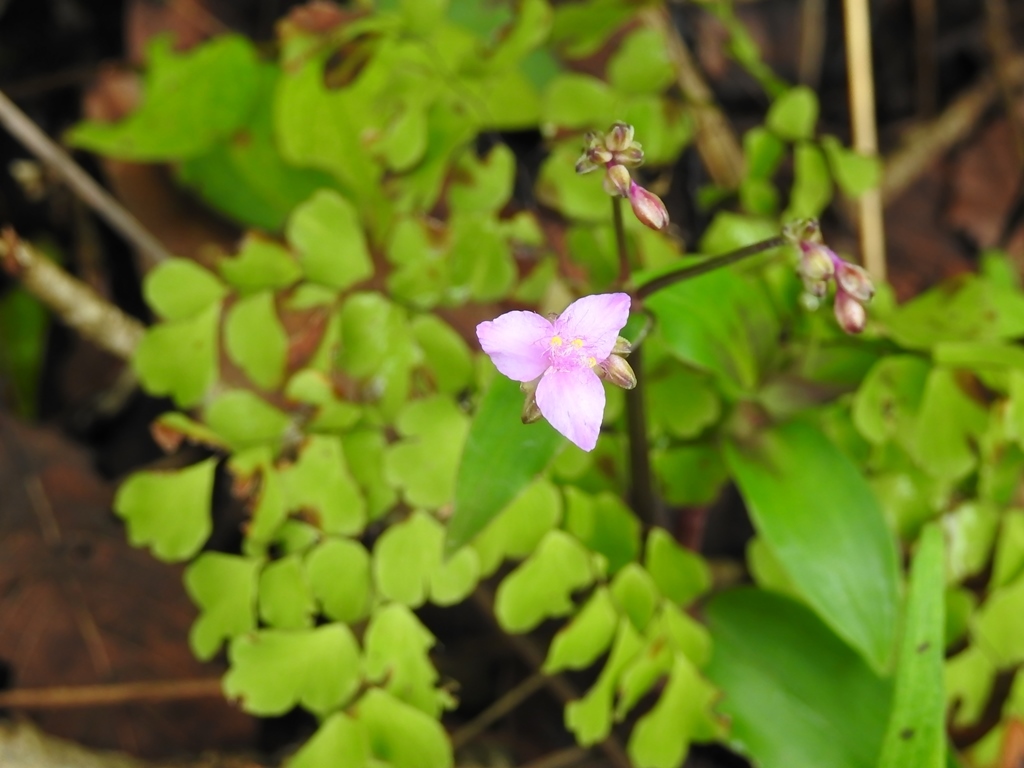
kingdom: Plantae
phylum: Tracheophyta
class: Liliopsida
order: Commelinales
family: Commelinaceae
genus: Callisia
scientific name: Callisia serrulata
